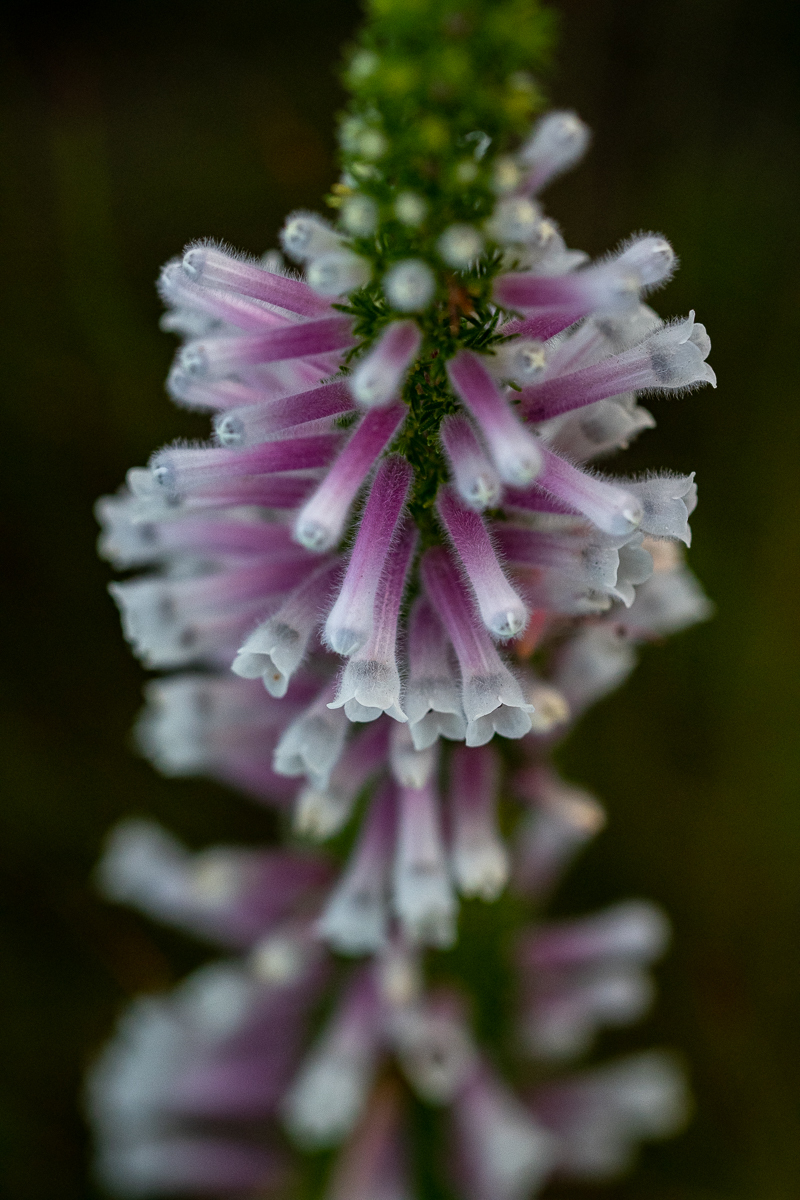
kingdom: Plantae
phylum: Tracheophyta
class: Magnoliopsida
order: Ericales
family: Ericaceae
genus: Erica
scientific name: Erica perspicua
